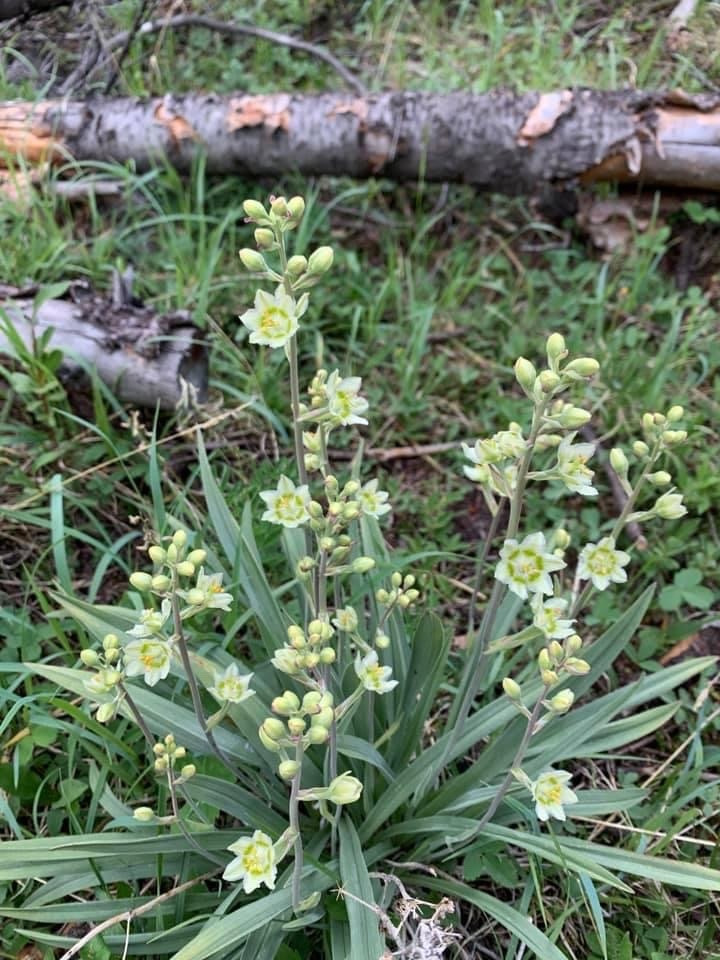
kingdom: Plantae
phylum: Tracheophyta
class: Liliopsida
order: Liliales
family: Melanthiaceae
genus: Anticlea
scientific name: Anticlea elegans
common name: Mountain death camas
